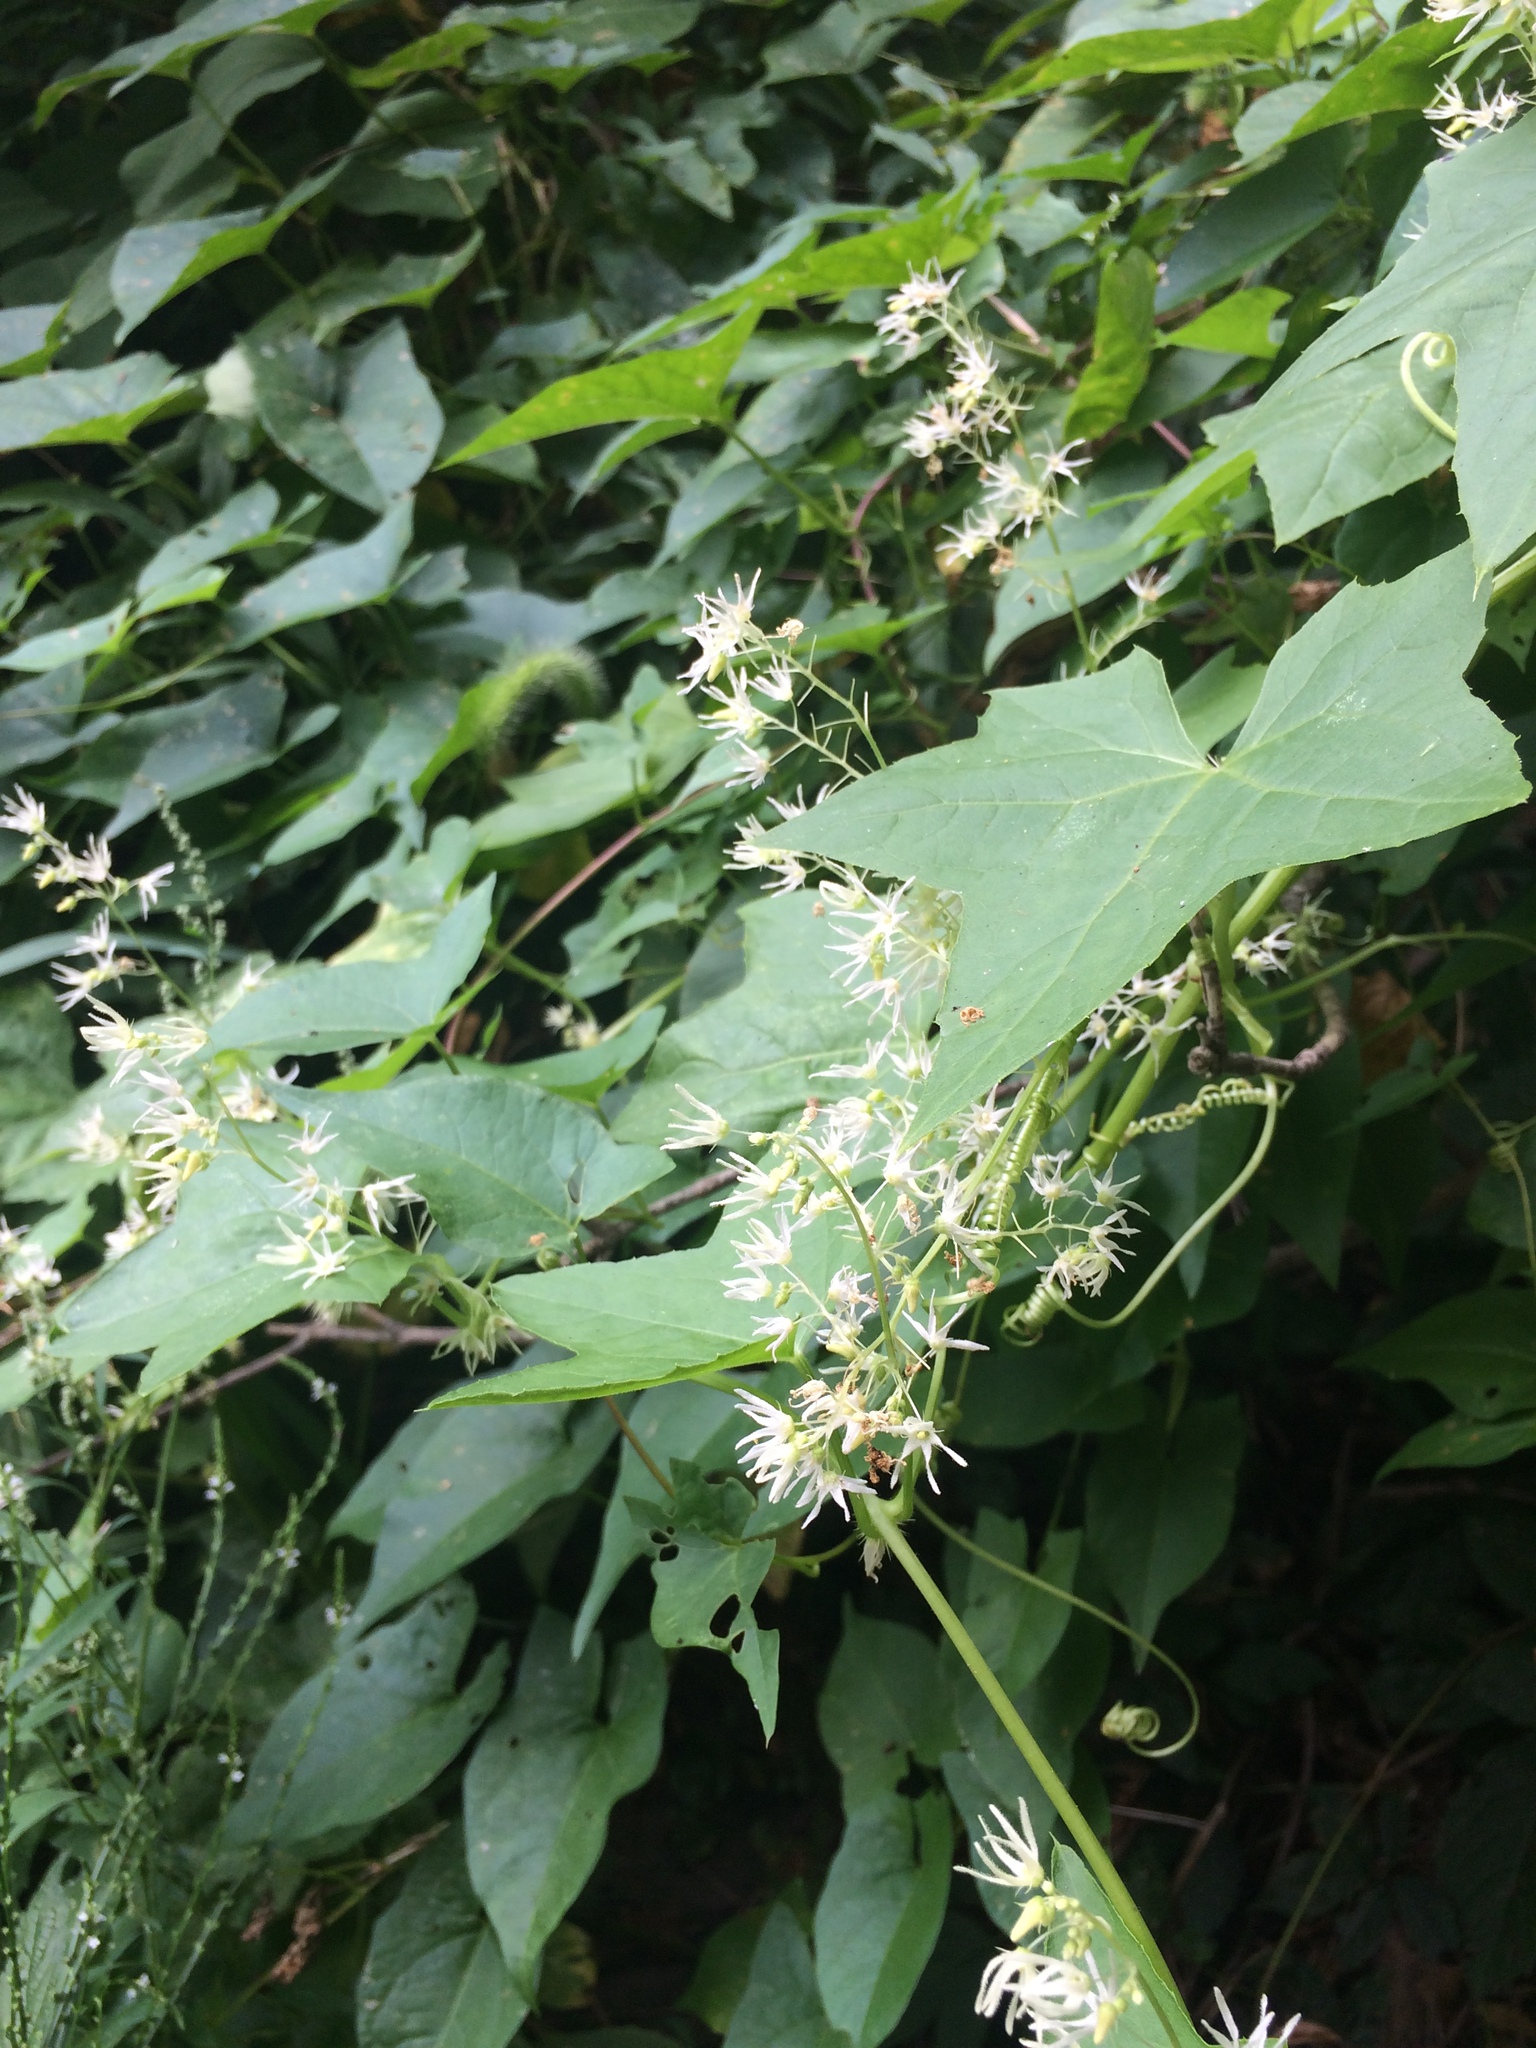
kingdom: Plantae
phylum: Tracheophyta
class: Magnoliopsida
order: Cucurbitales
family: Cucurbitaceae
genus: Echinocystis
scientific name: Echinocystis lobata
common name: Wild cucumber
